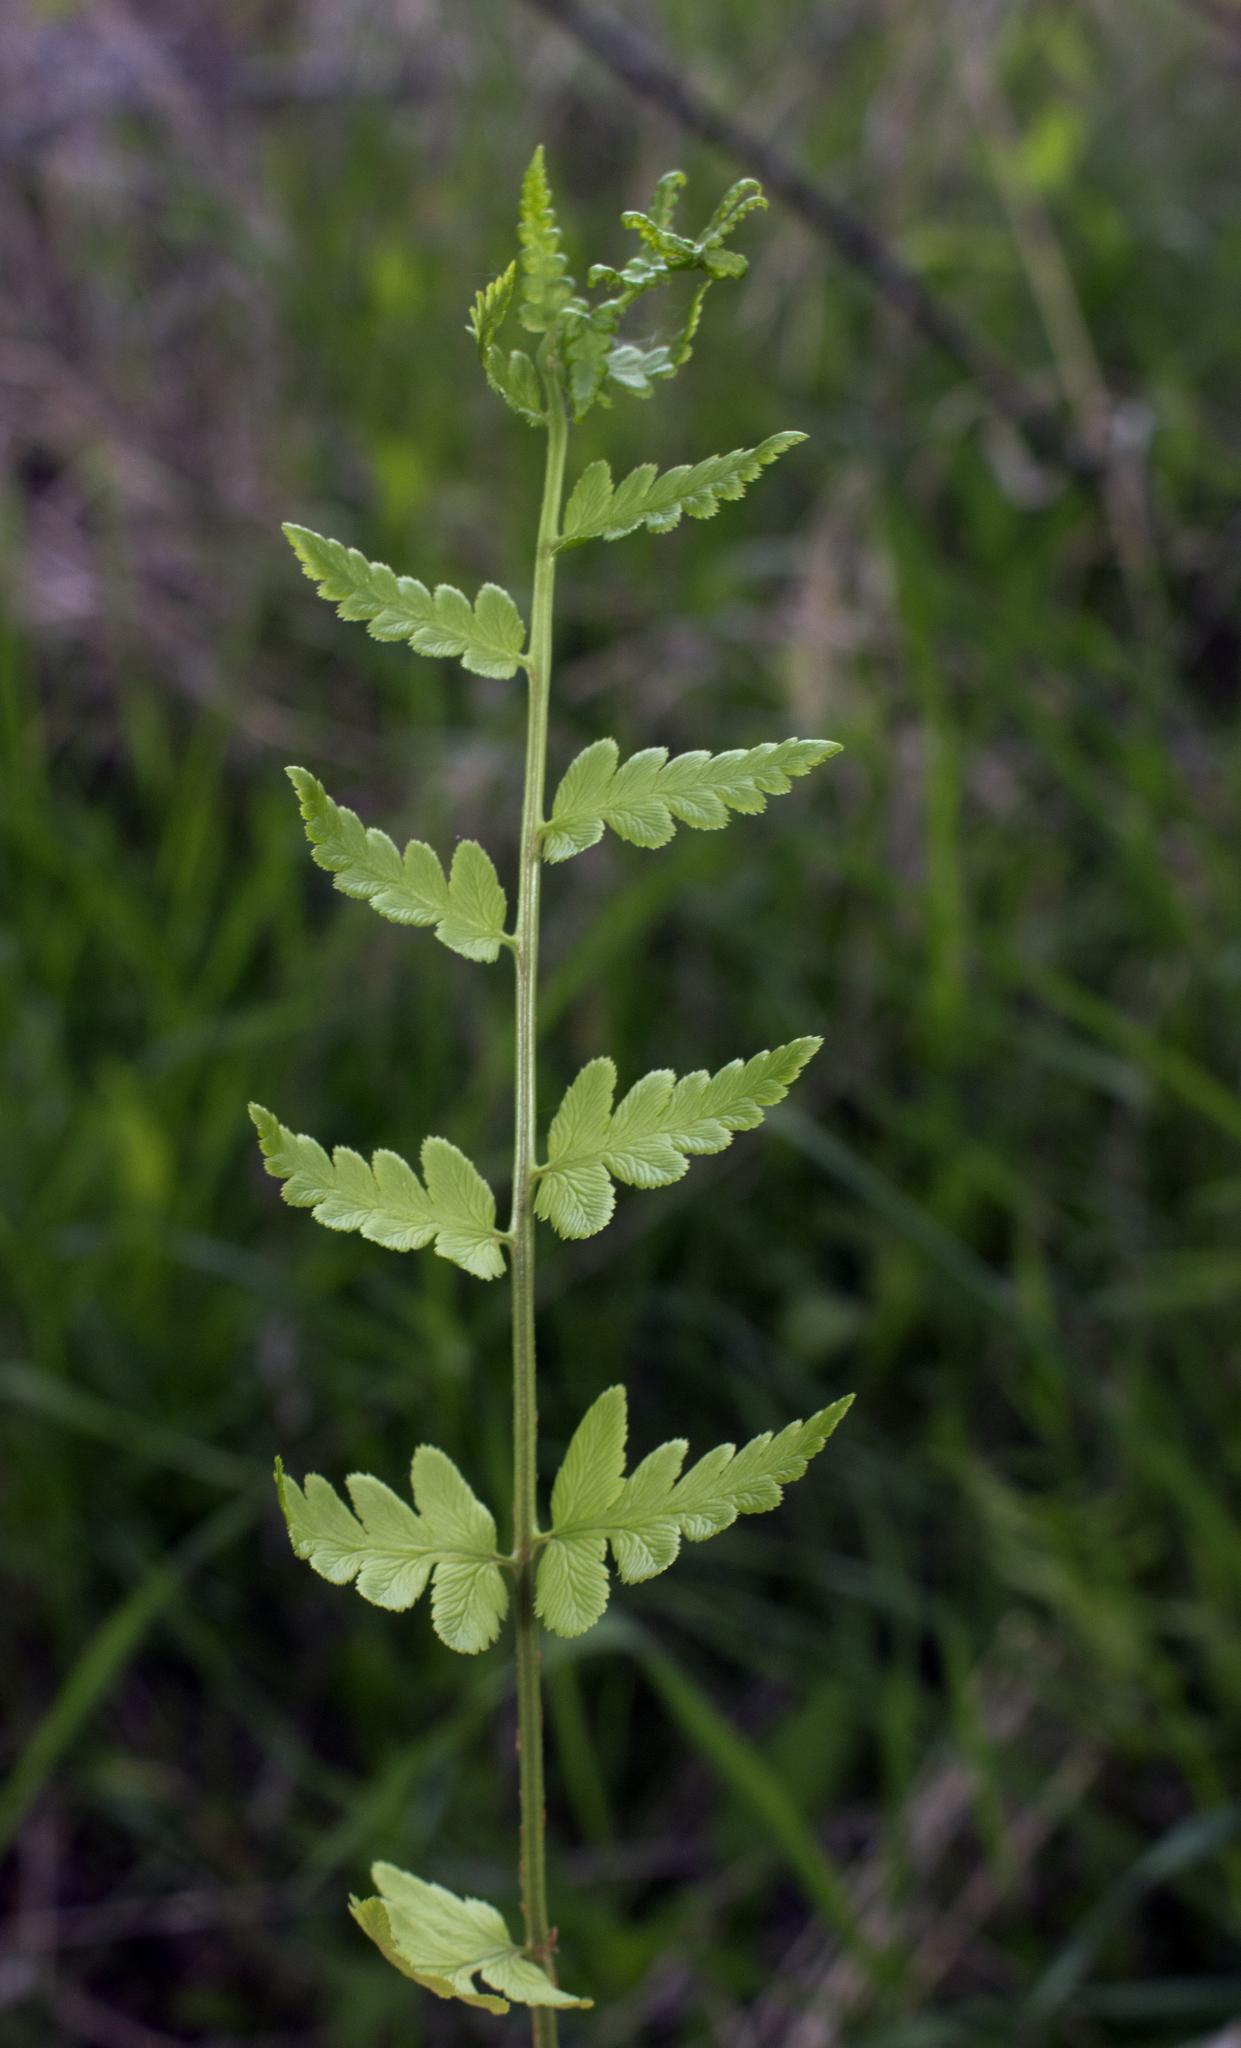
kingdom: Plantae
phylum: Tracheophyta
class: Polypodiopsida
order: Polypodiales
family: Dryopteridaceae
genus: Dryopteris
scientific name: Dryopteris cristata
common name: Crested wood fern
